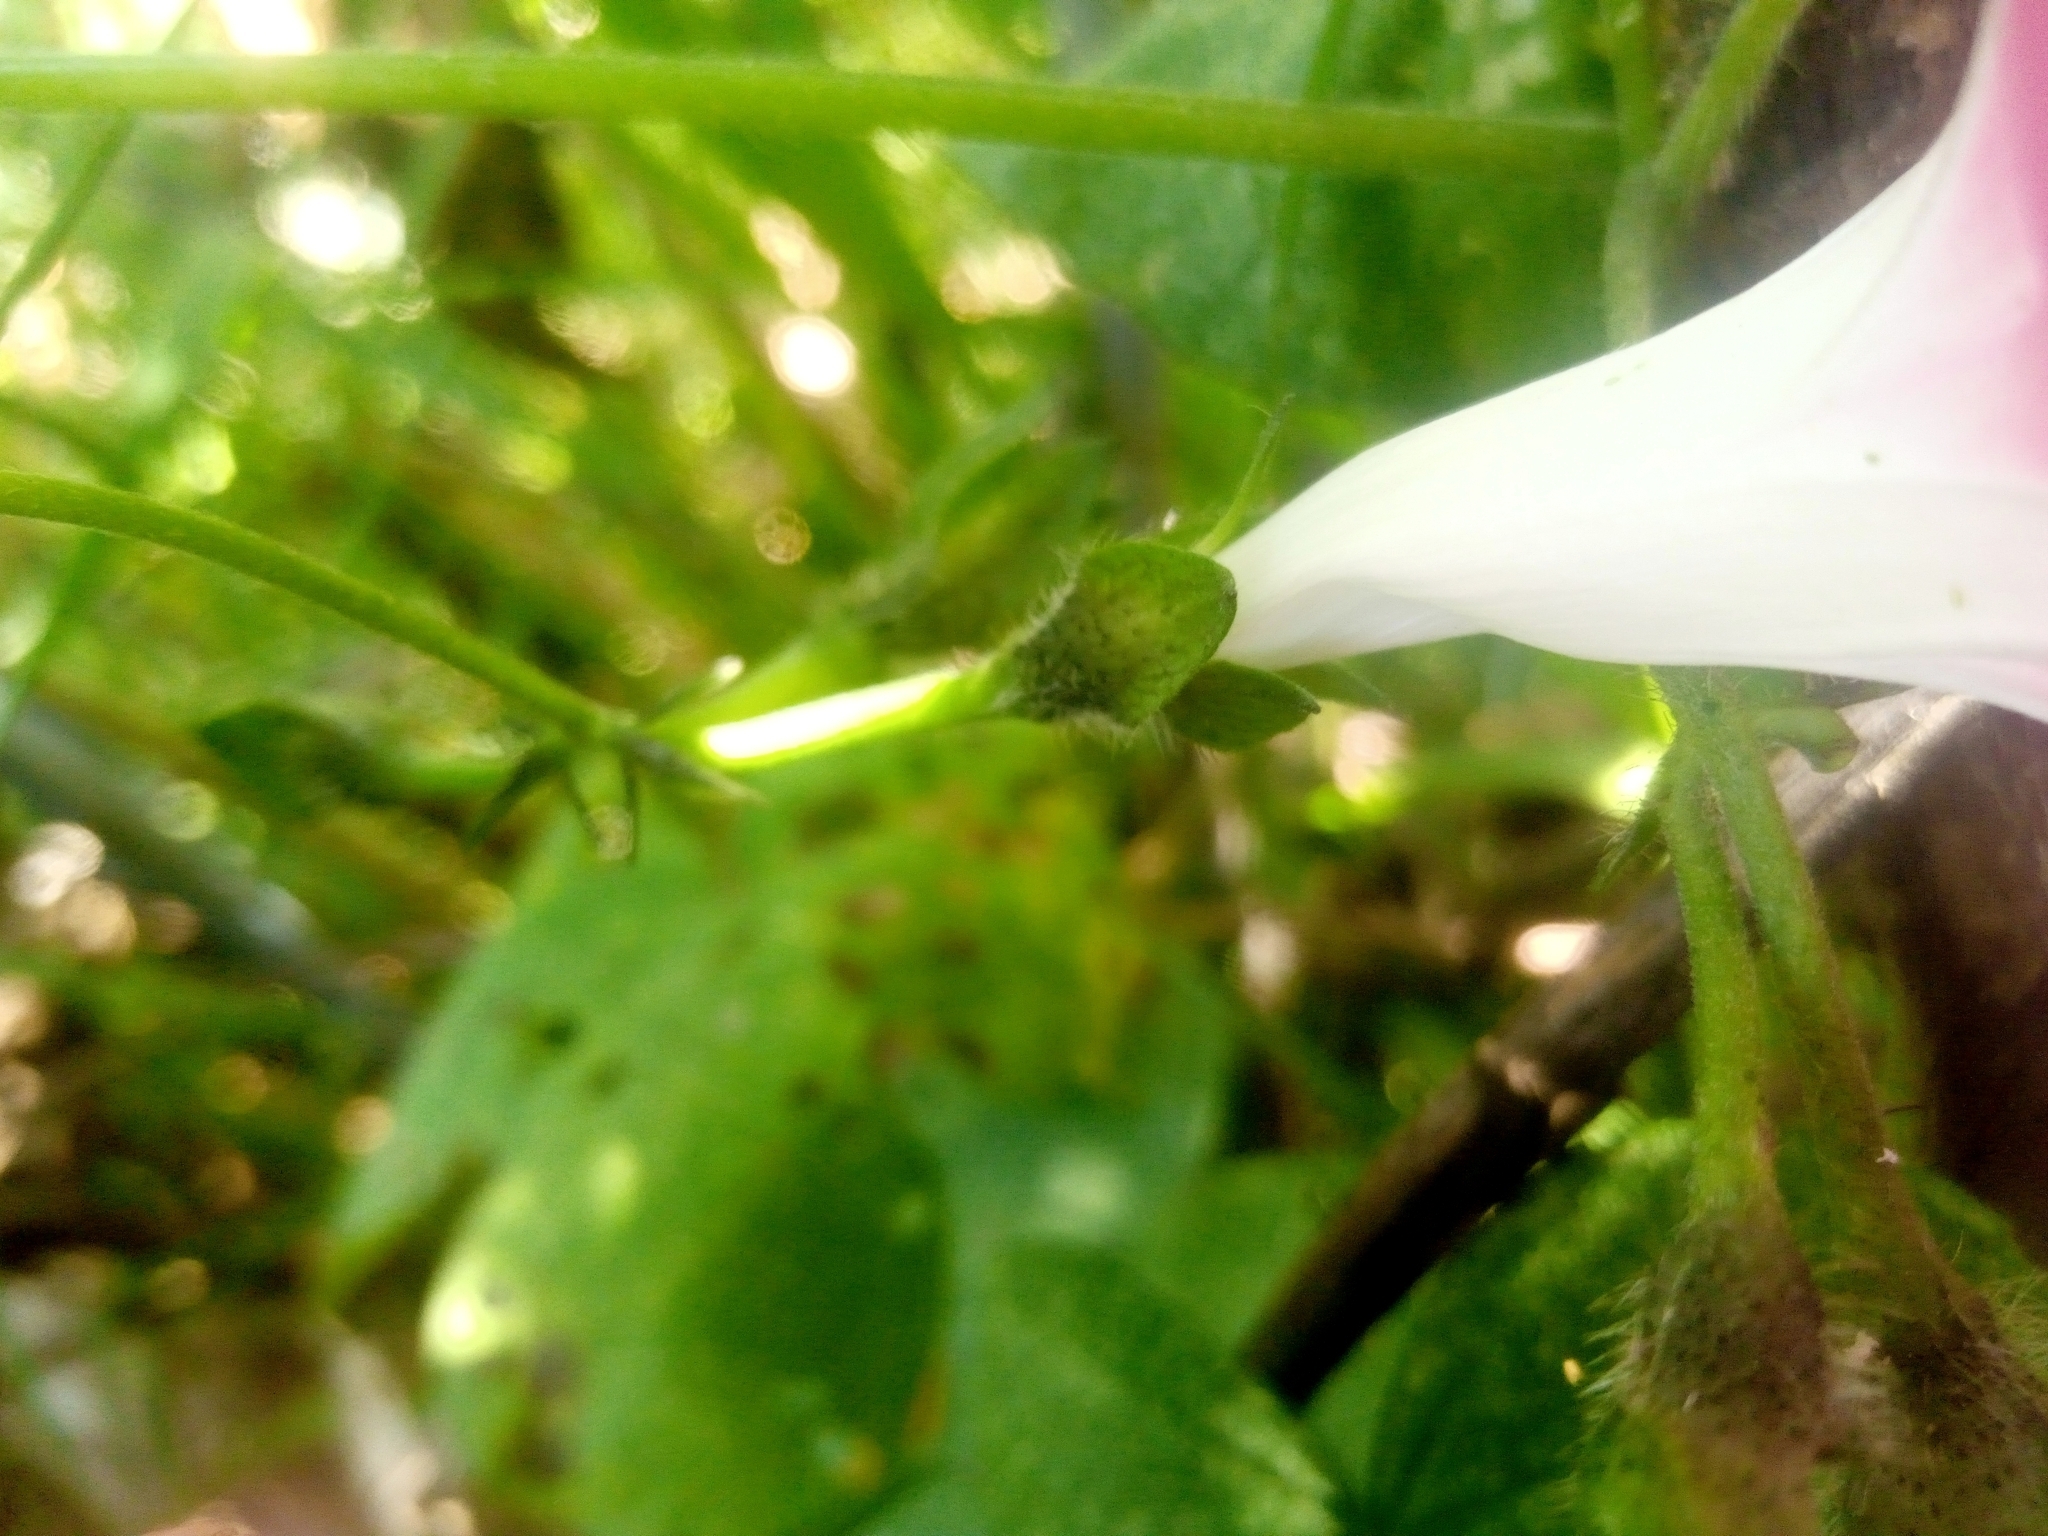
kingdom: Plantae
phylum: Tracheophyta
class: Magnoliopsida
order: Solanales
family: Convolvulaceae
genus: Ipomoea
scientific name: Ipomoea purpurea
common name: Common morning-glory
